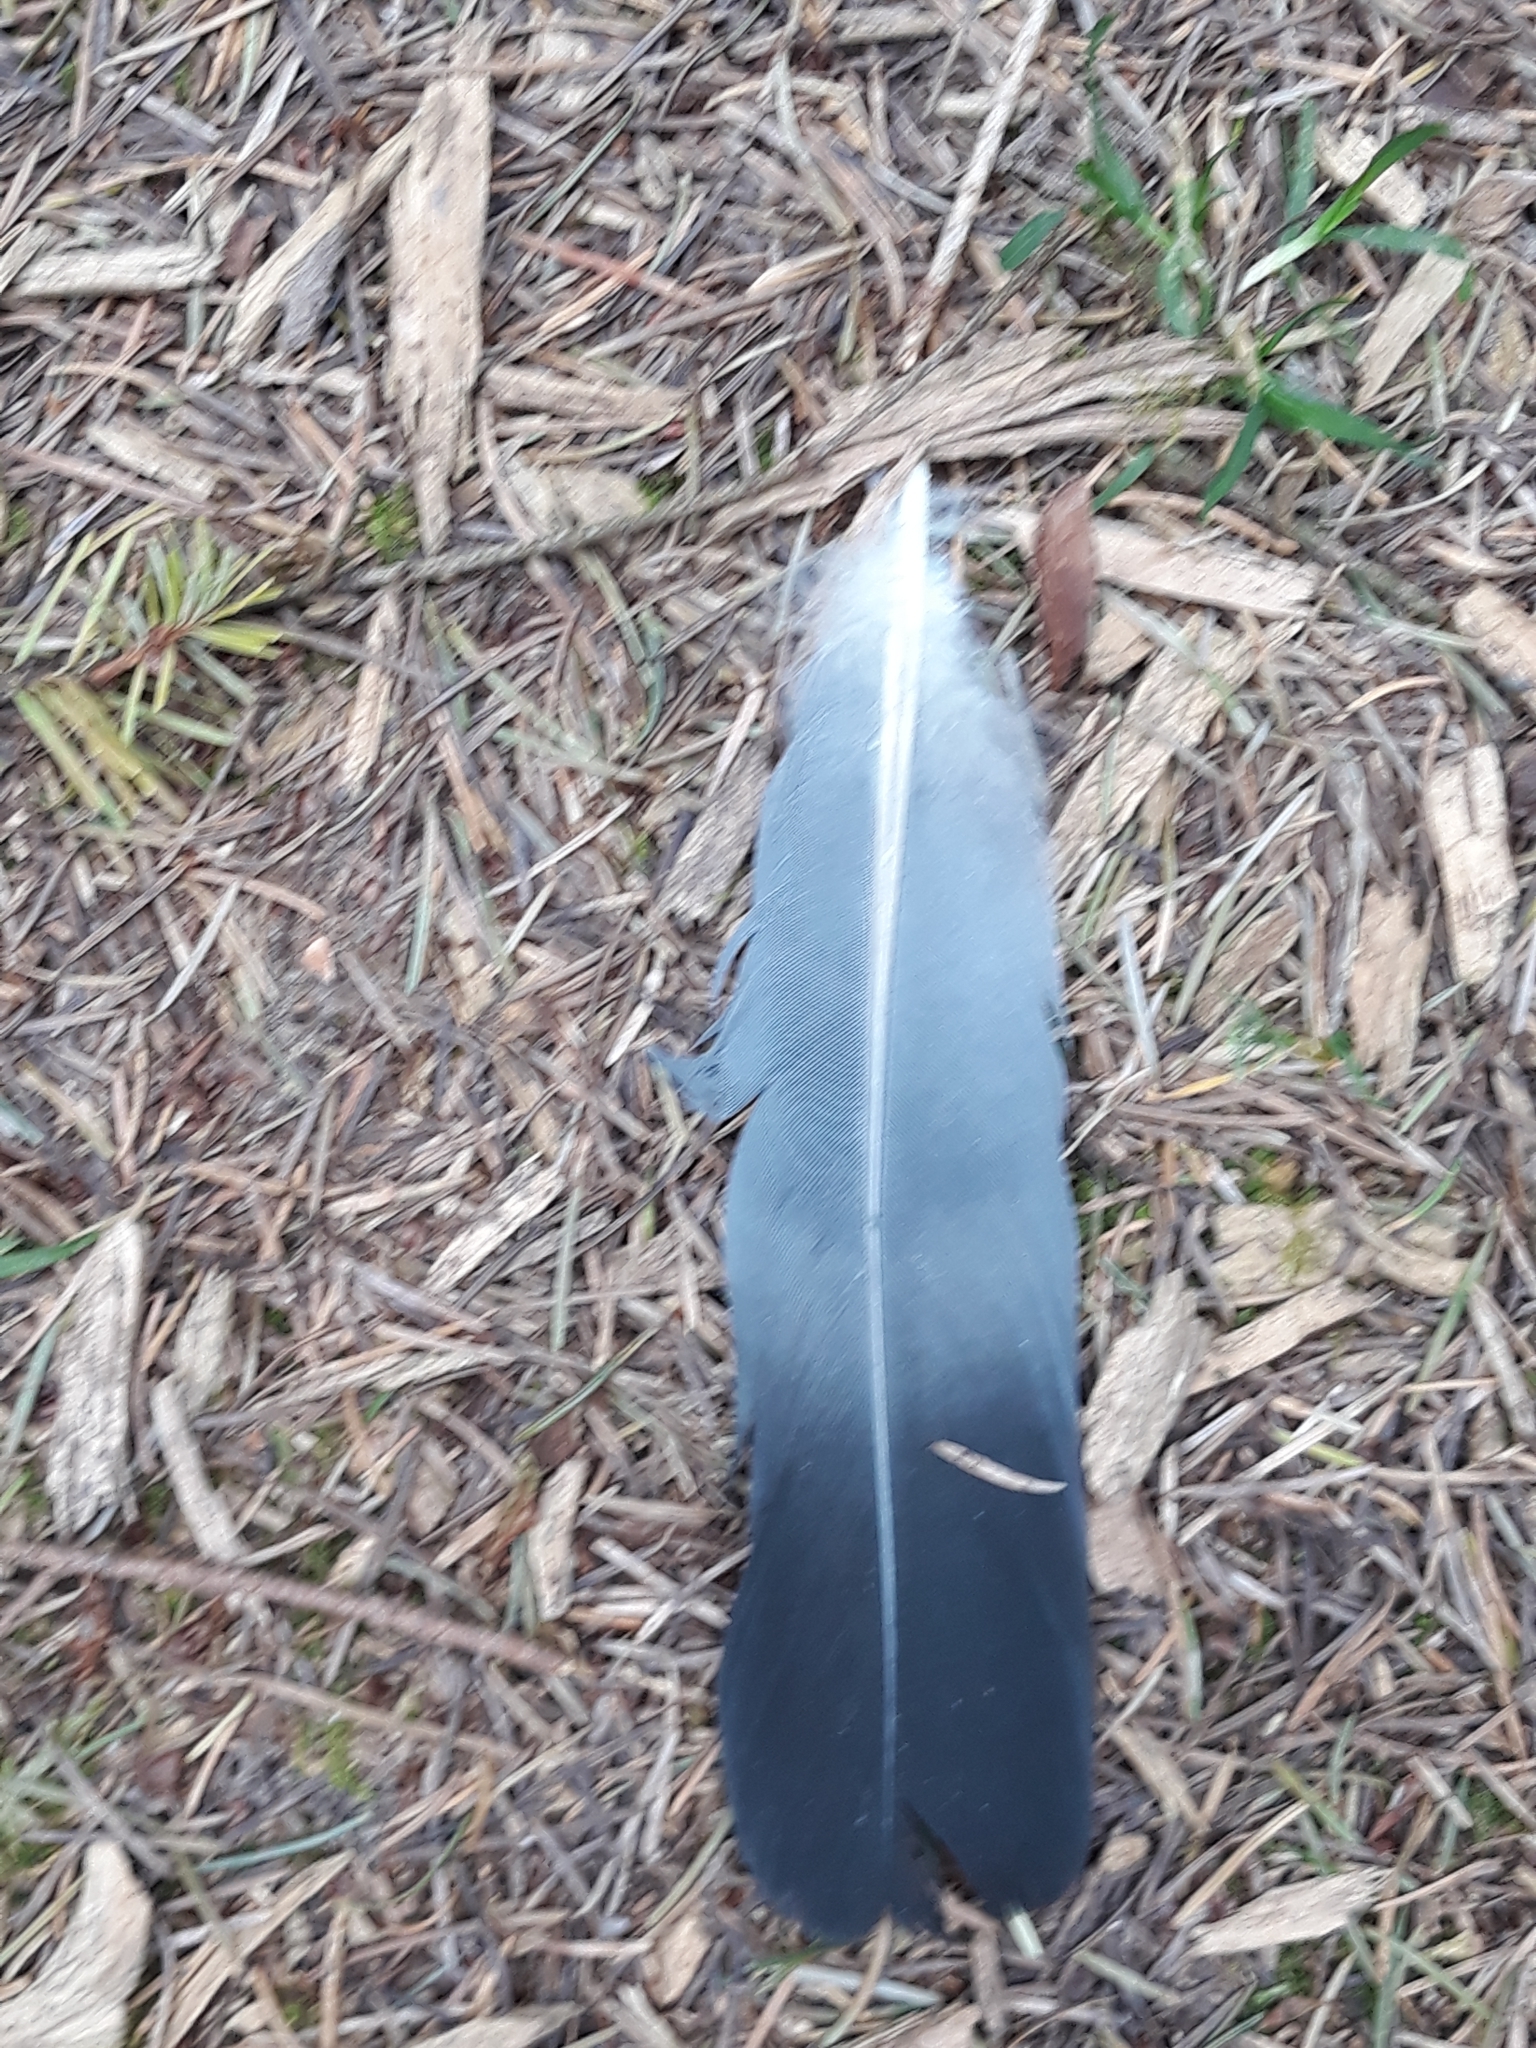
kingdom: Animalia
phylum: Chordata
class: Aves
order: Columbiformes
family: Columbidae
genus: Columba
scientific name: Columba palumbus
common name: Common wood pigeon
